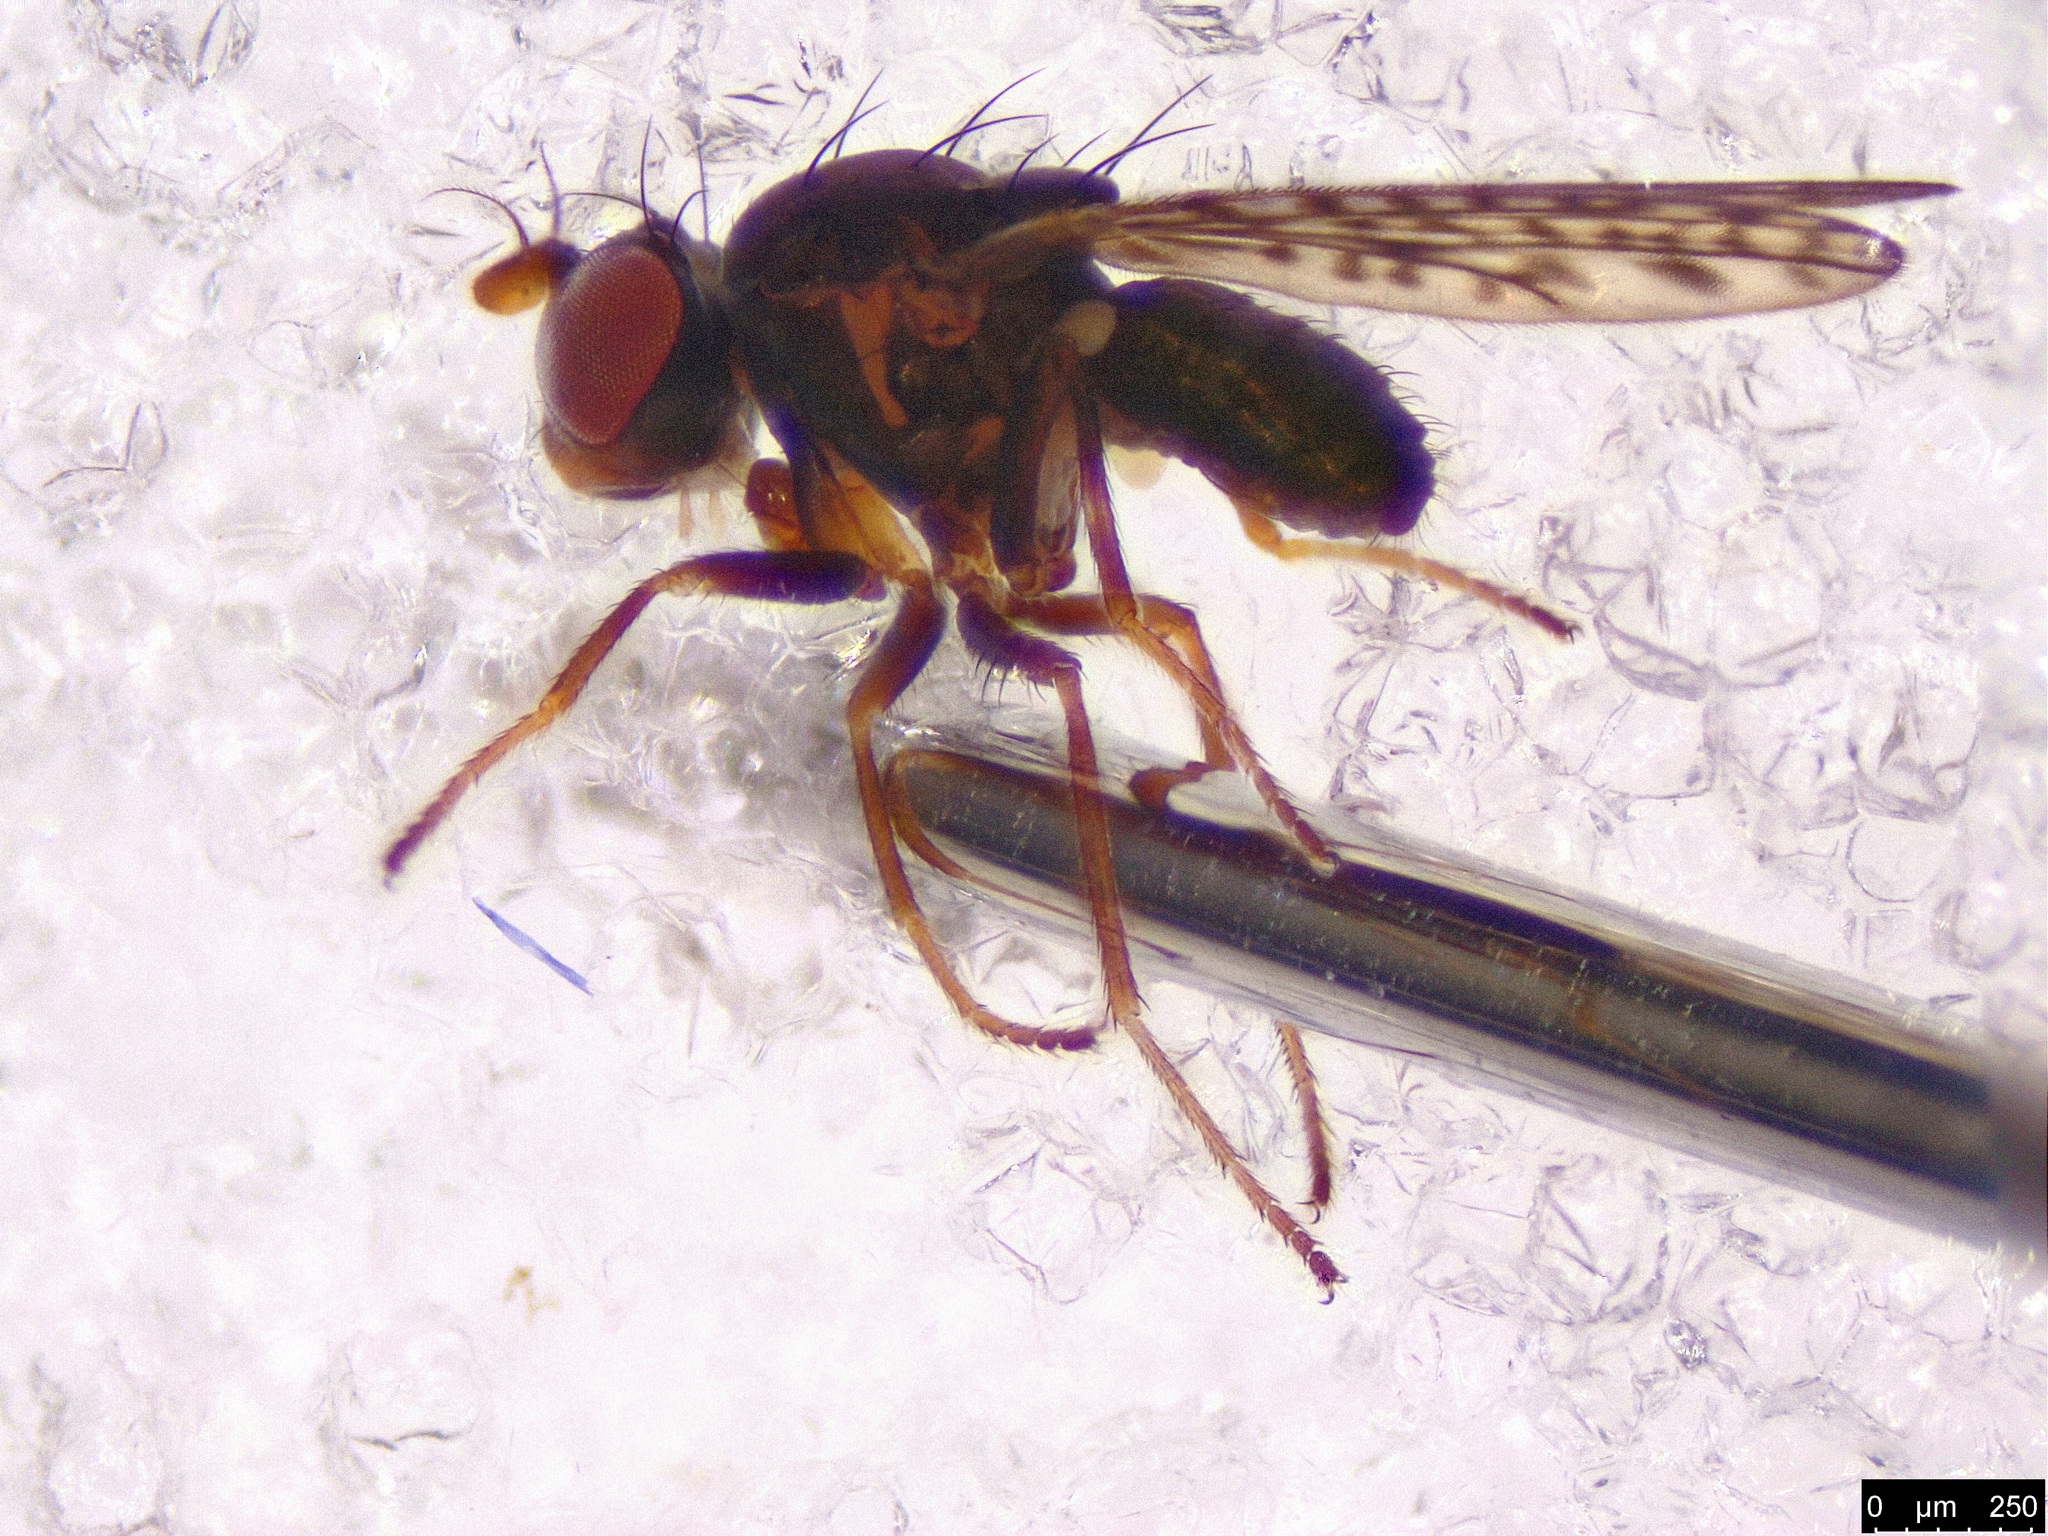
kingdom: Animalia
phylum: Arthropoda
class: Insecta
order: Diptera
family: Ephydridae
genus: Nostima
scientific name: Nostima duoseta
